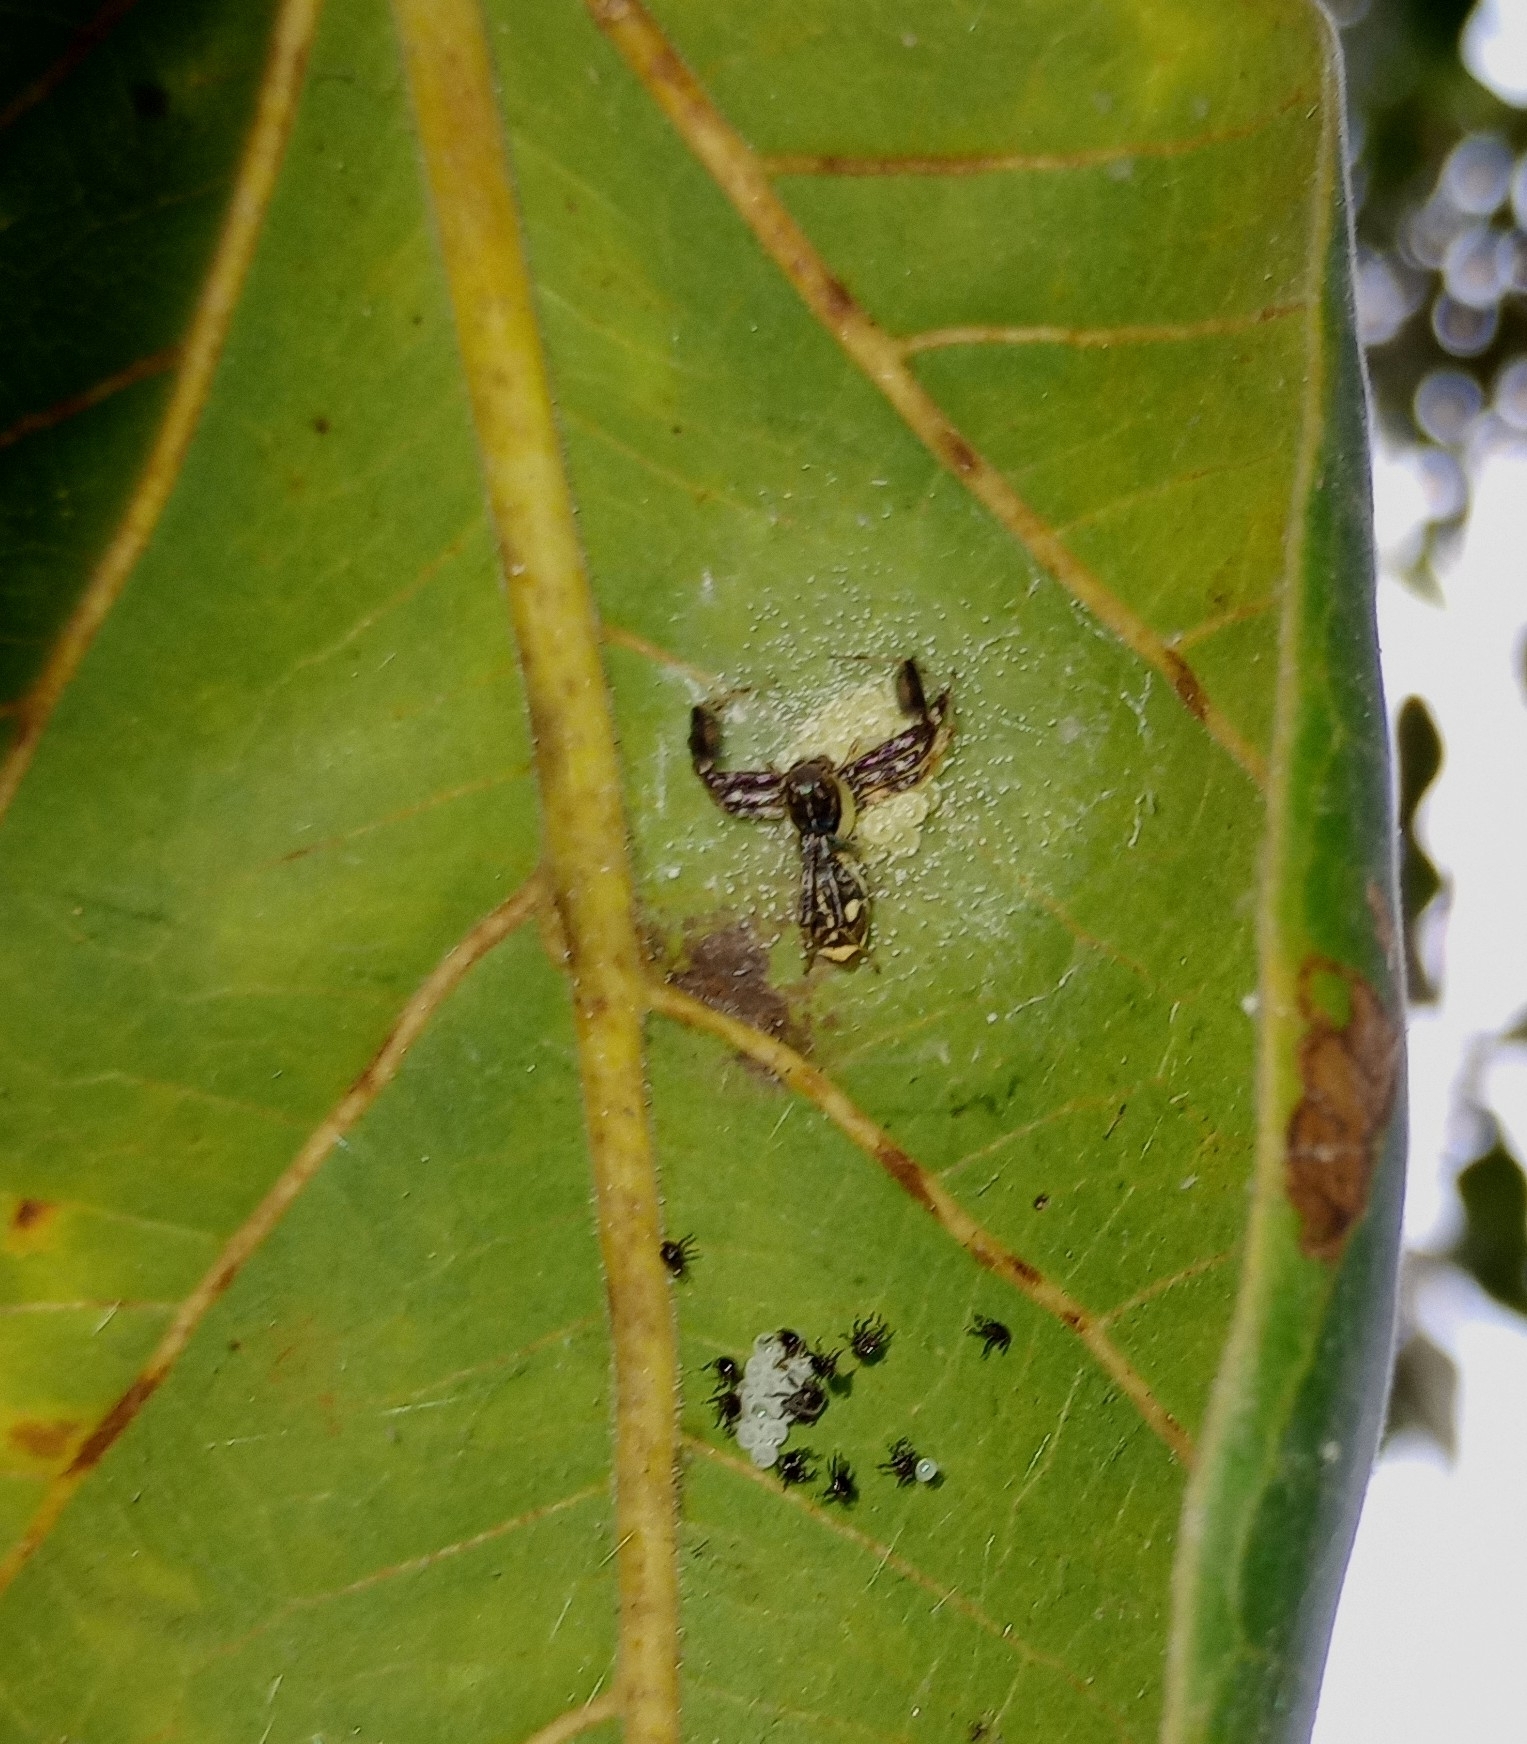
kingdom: Animalia
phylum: Arthropoda
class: Arachnida
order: Araneae
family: Salticidae
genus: Brettus
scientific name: Brettus cingulatus
